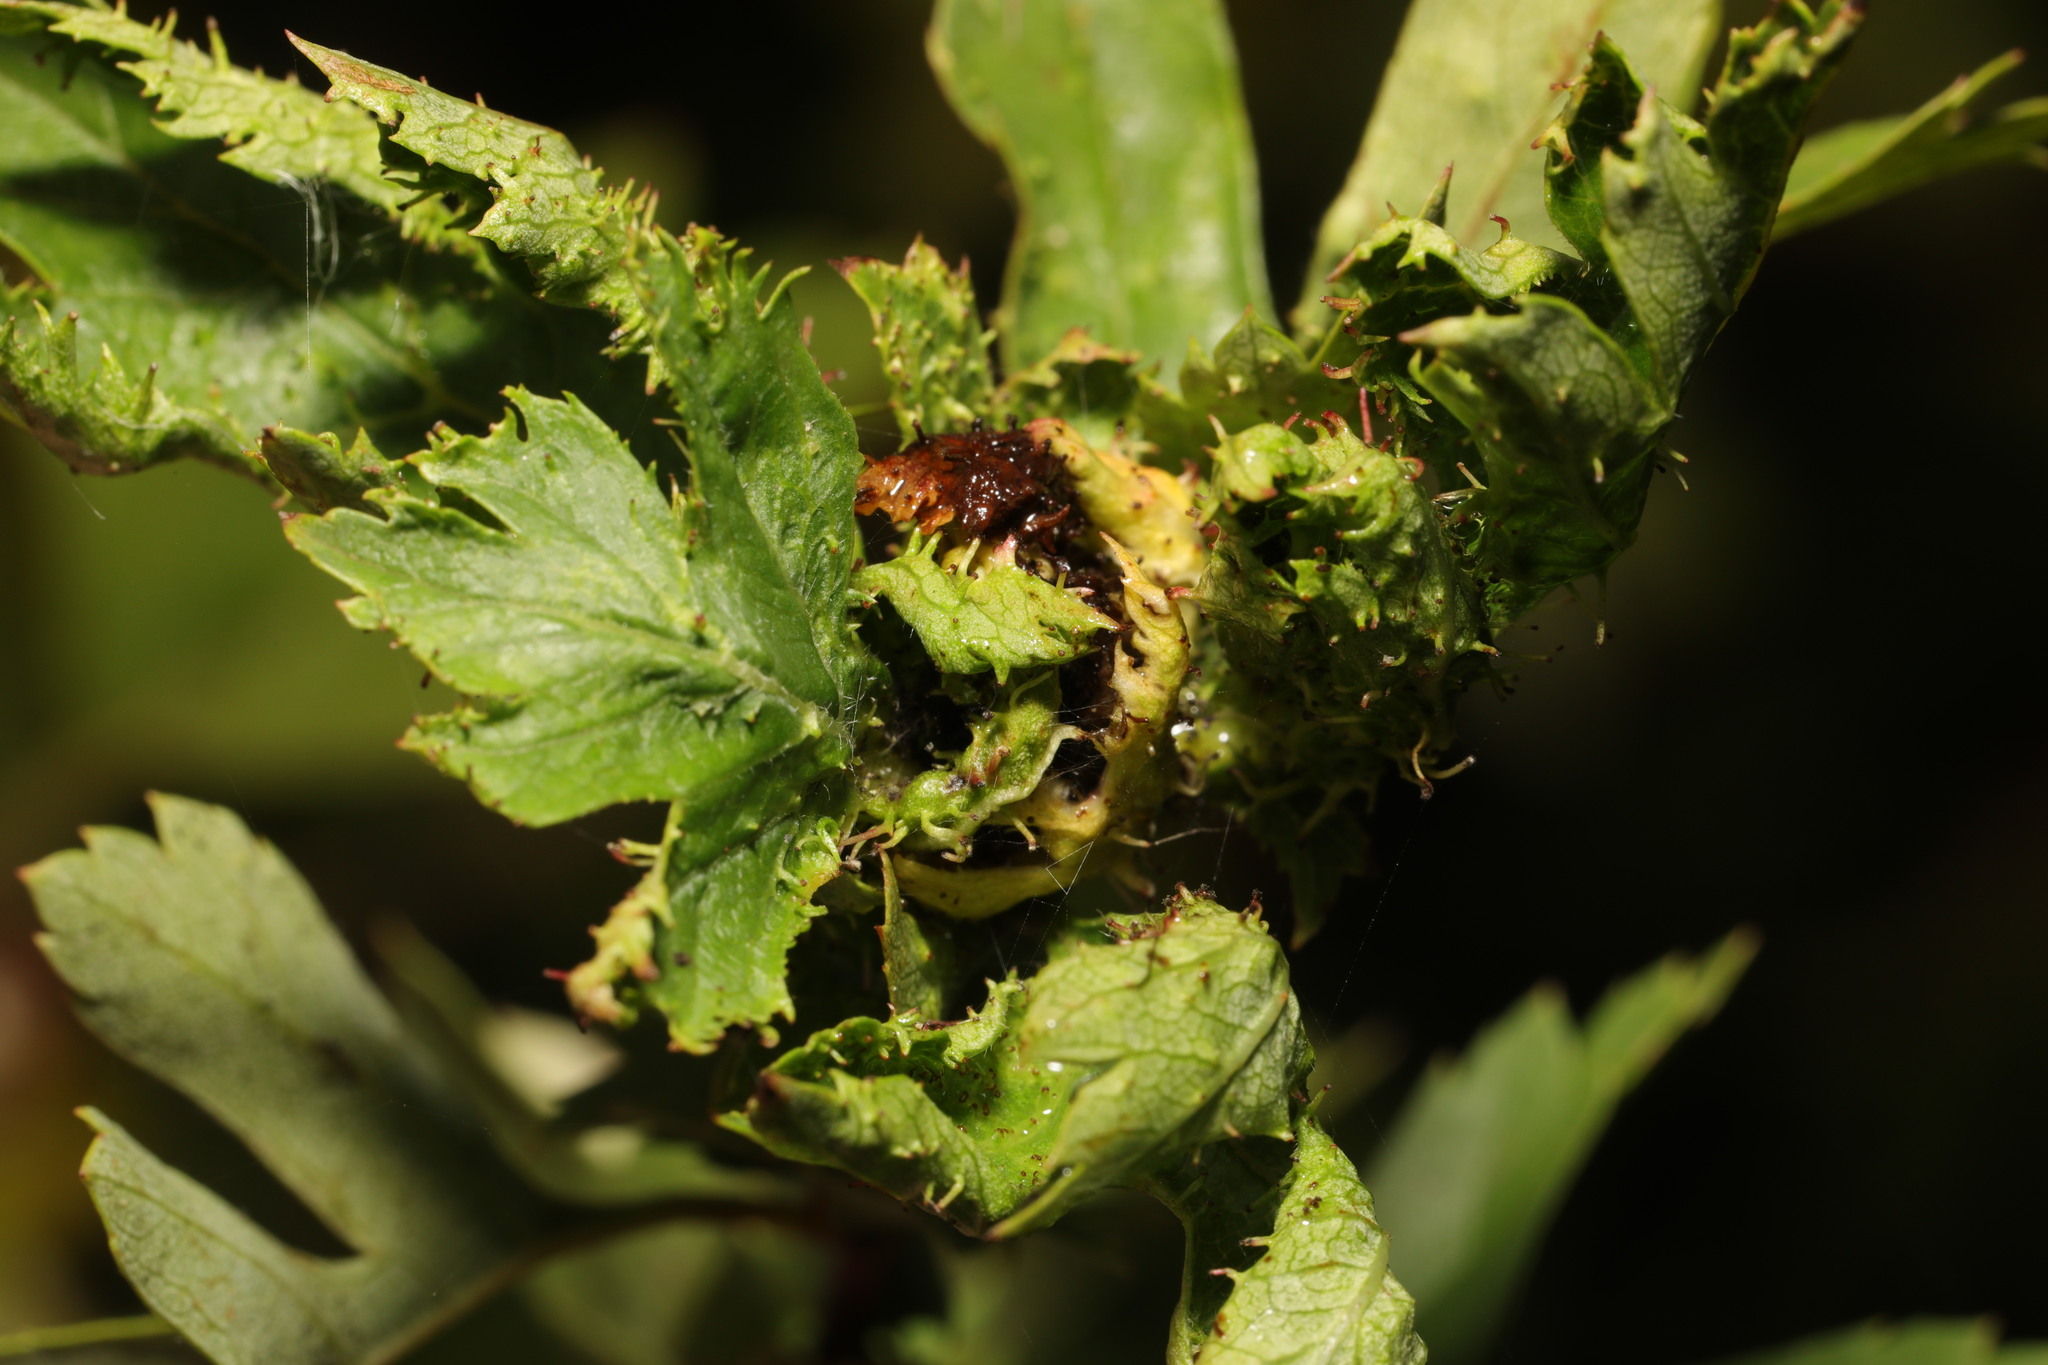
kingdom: Animalia
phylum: Arthropoda
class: Insecta
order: Diptera
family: Cecidomyiidae
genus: Dasineura
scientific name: Dasineura crataegi
